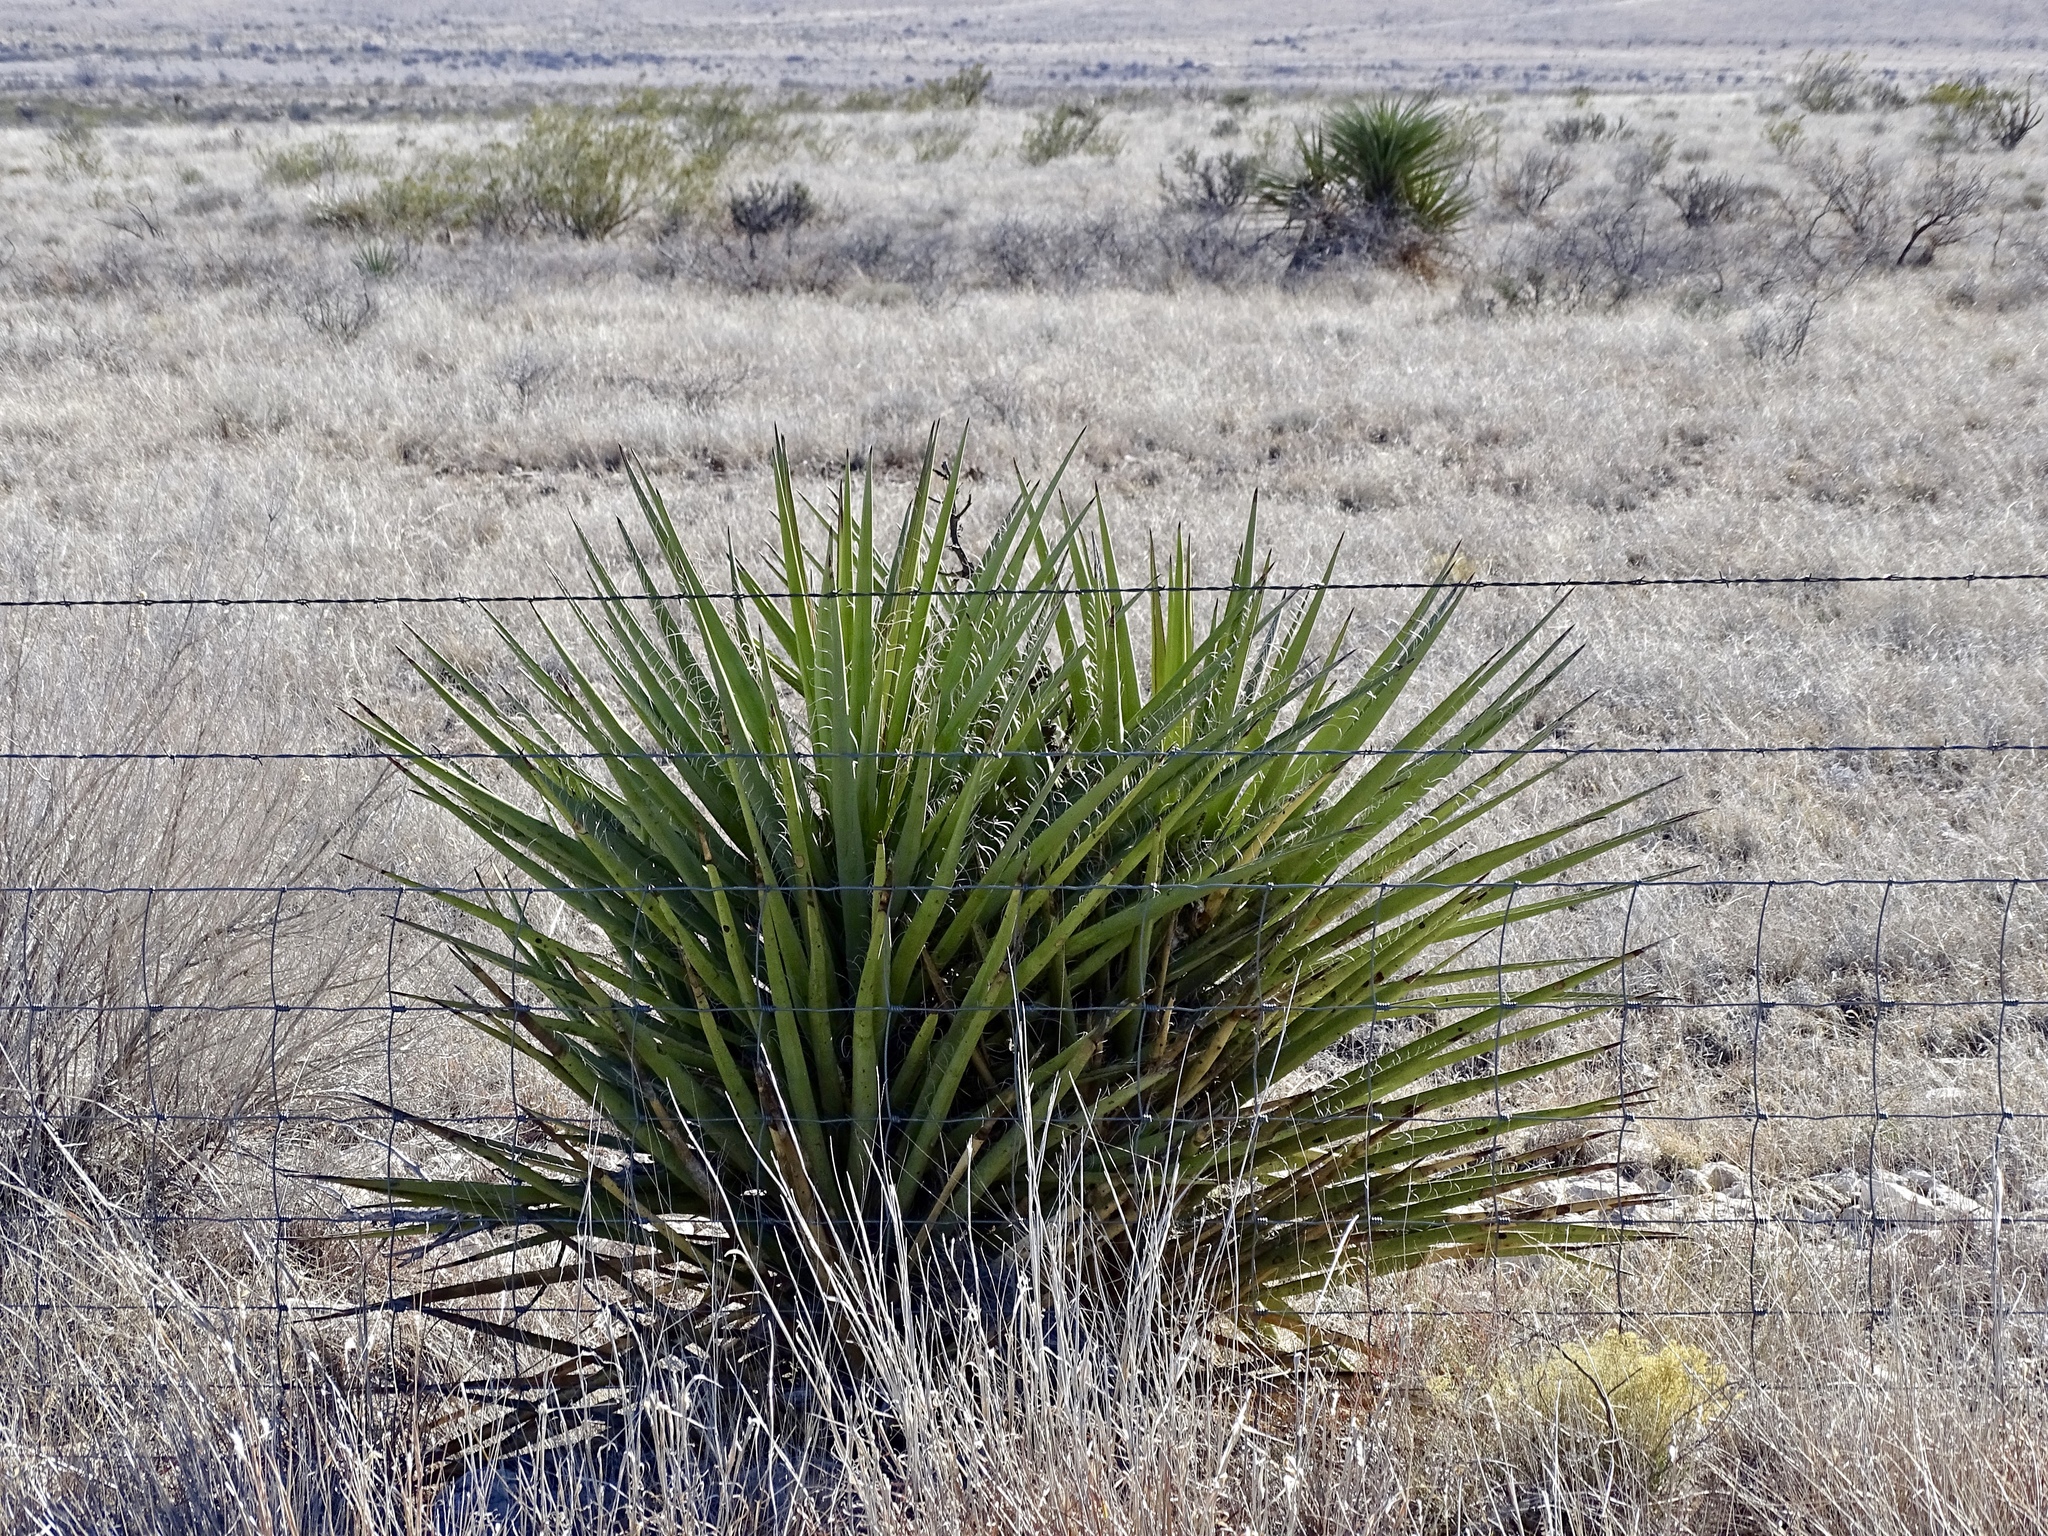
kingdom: Plantae
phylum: Tracheophyta
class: Liliopsida
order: Asparagales
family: Asparagaceae
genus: Yucca
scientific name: Yucca treculiana
